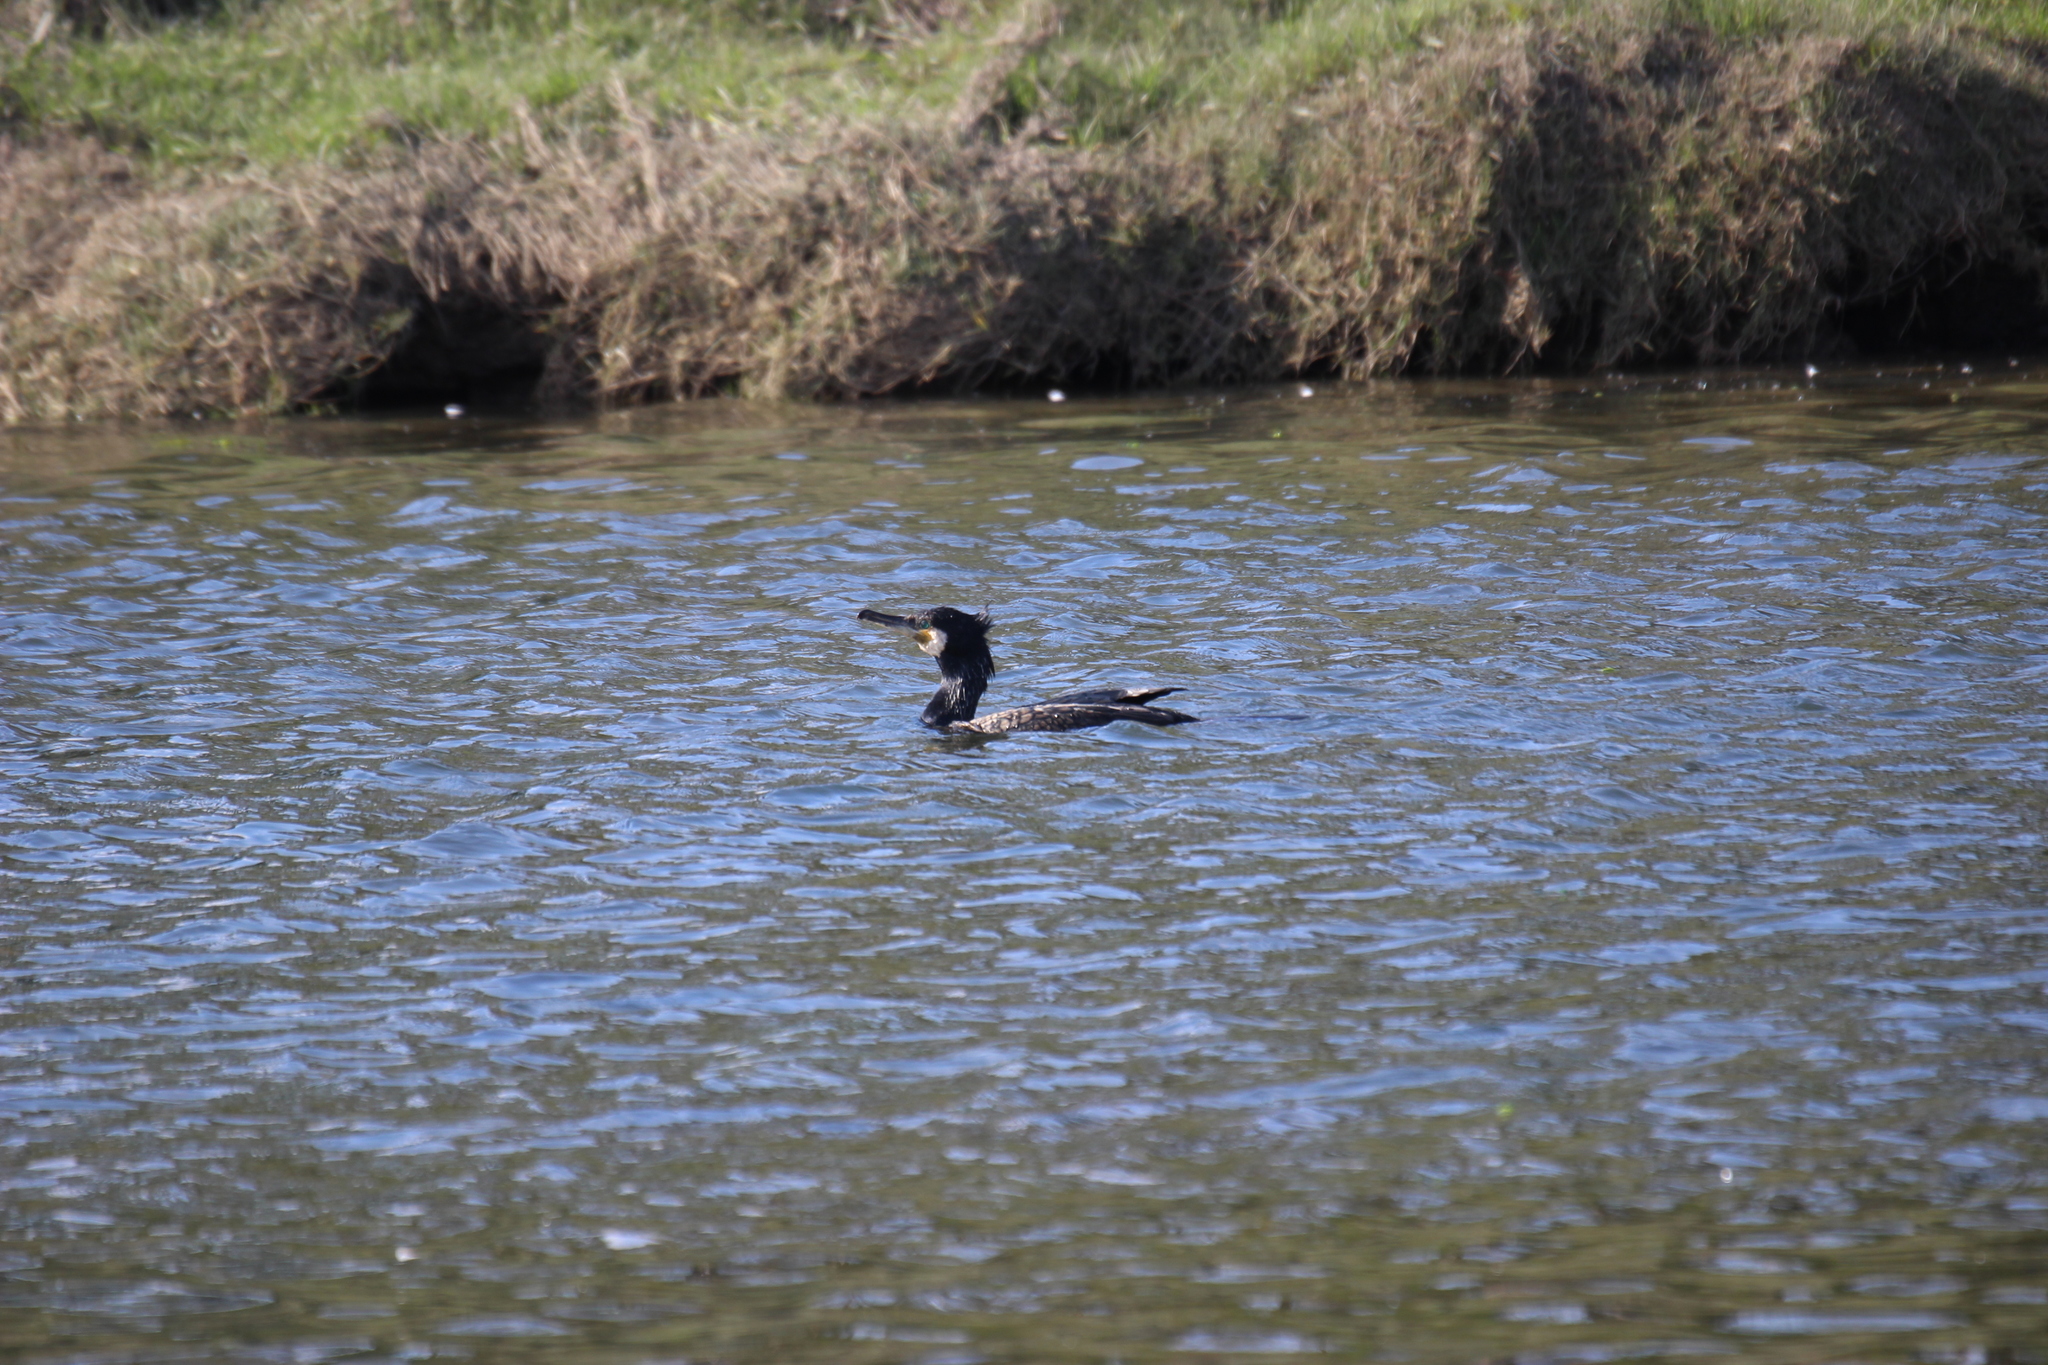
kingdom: Animalia
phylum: Chordata
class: Aves
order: Suliformes
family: Phalacrocoracidae
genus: Phalacrocorax
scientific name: Phalacrocorax carbo
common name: Great cormorant
